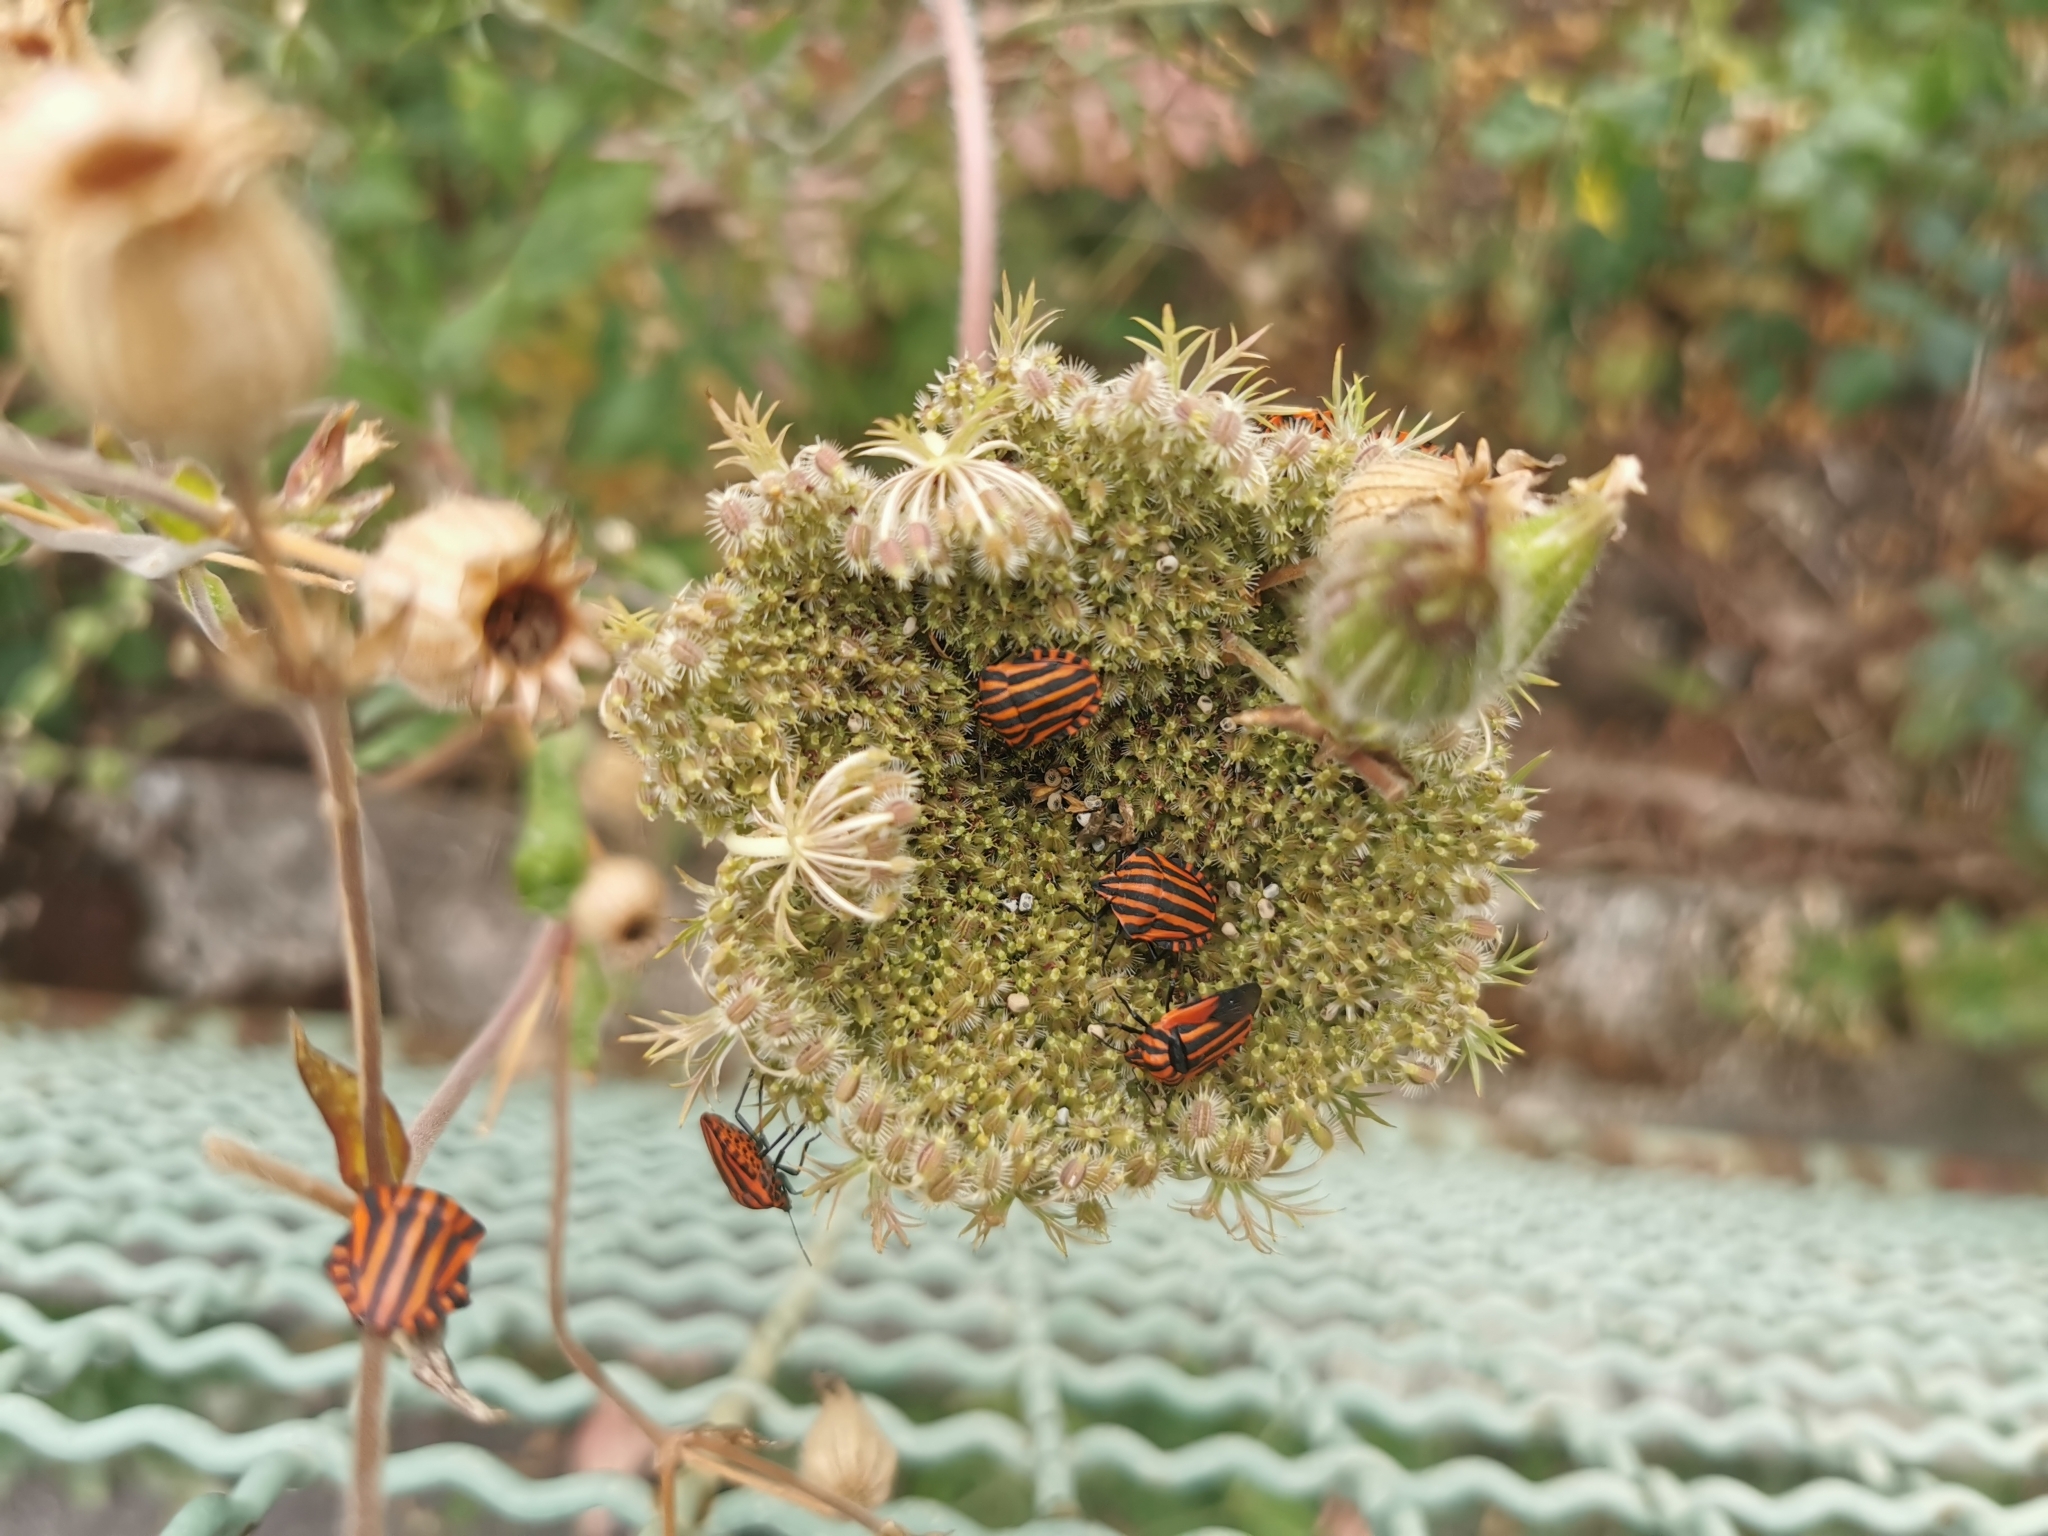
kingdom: Animalia
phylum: Arthropoda
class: Insecta
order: Hemiptera
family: Pentatomidae
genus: Graphosoma
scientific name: Graphosoma italicum
